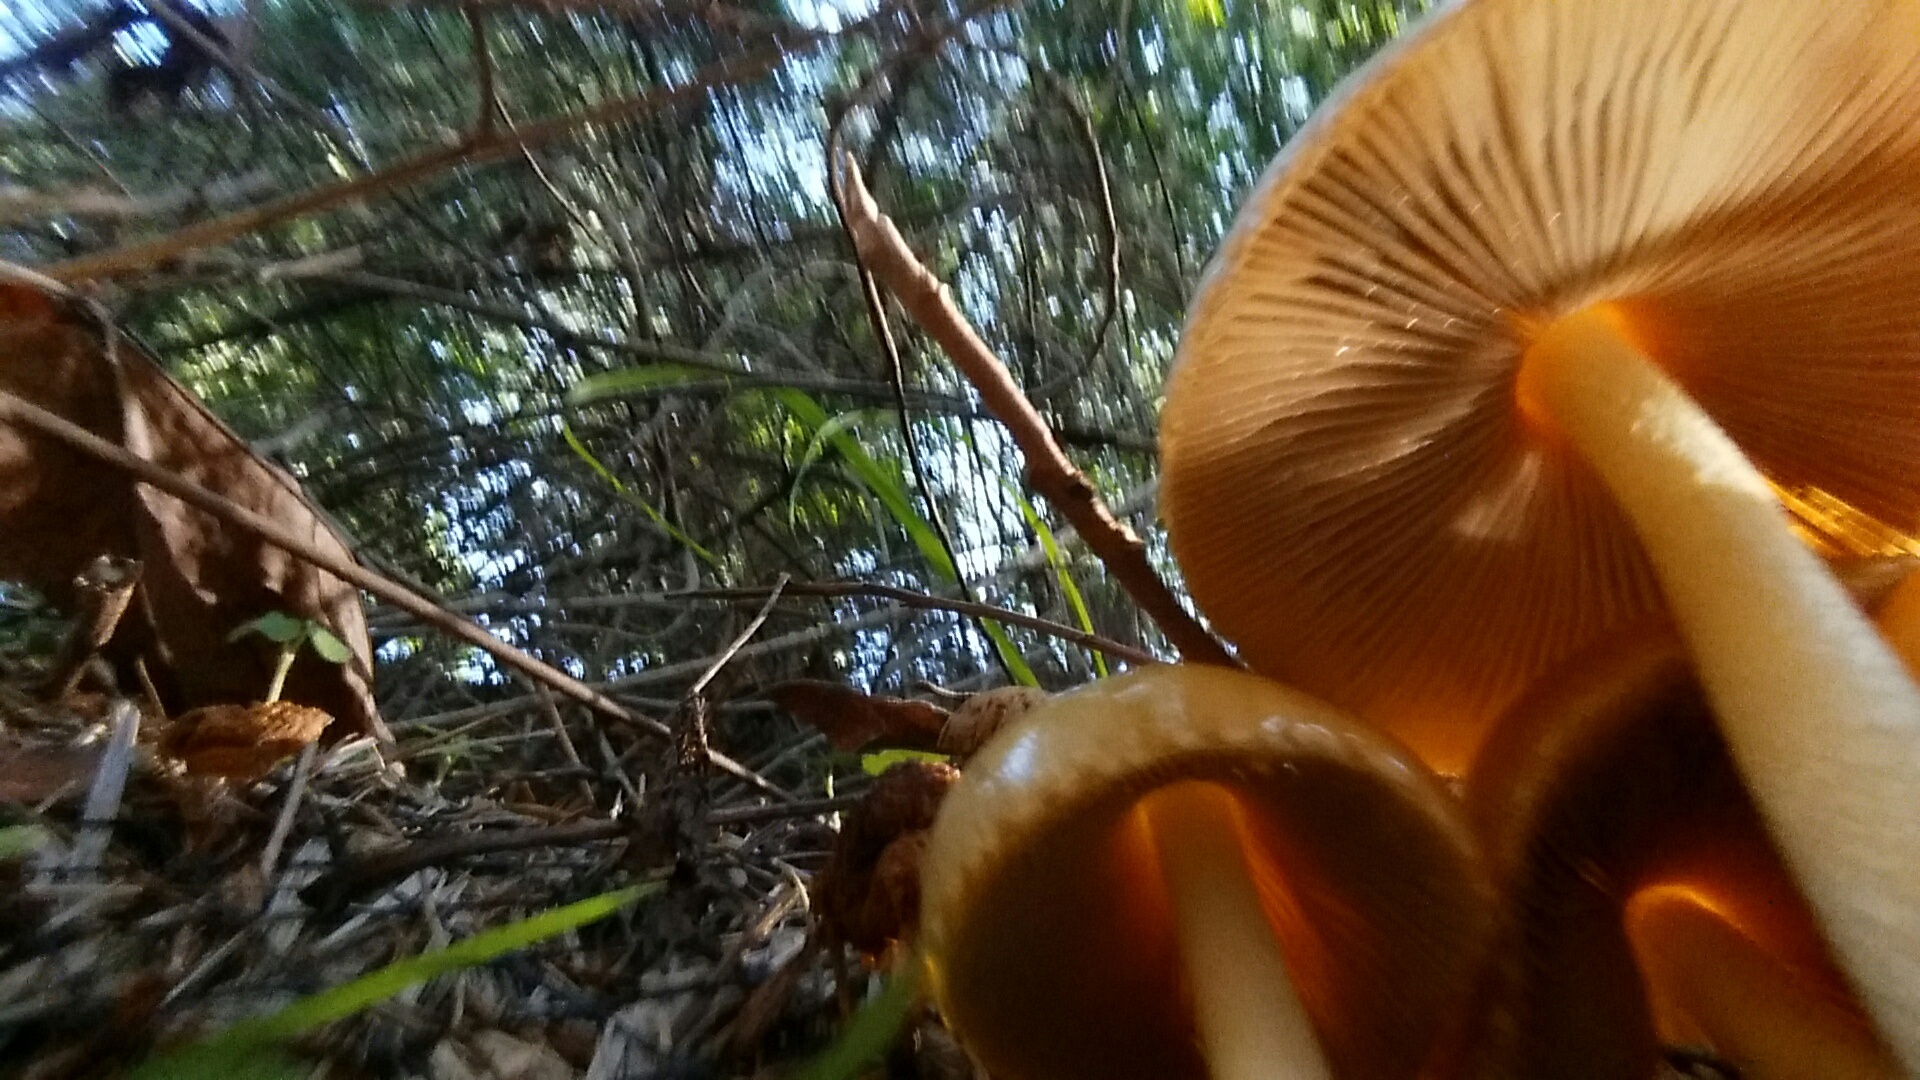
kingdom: Fungi
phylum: Basidiomycota
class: Agaricomycetes
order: Agaricales
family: Bolbitiaceae
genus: Bolbitius
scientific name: Bolbitius titubans
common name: Yellow fieldcap
